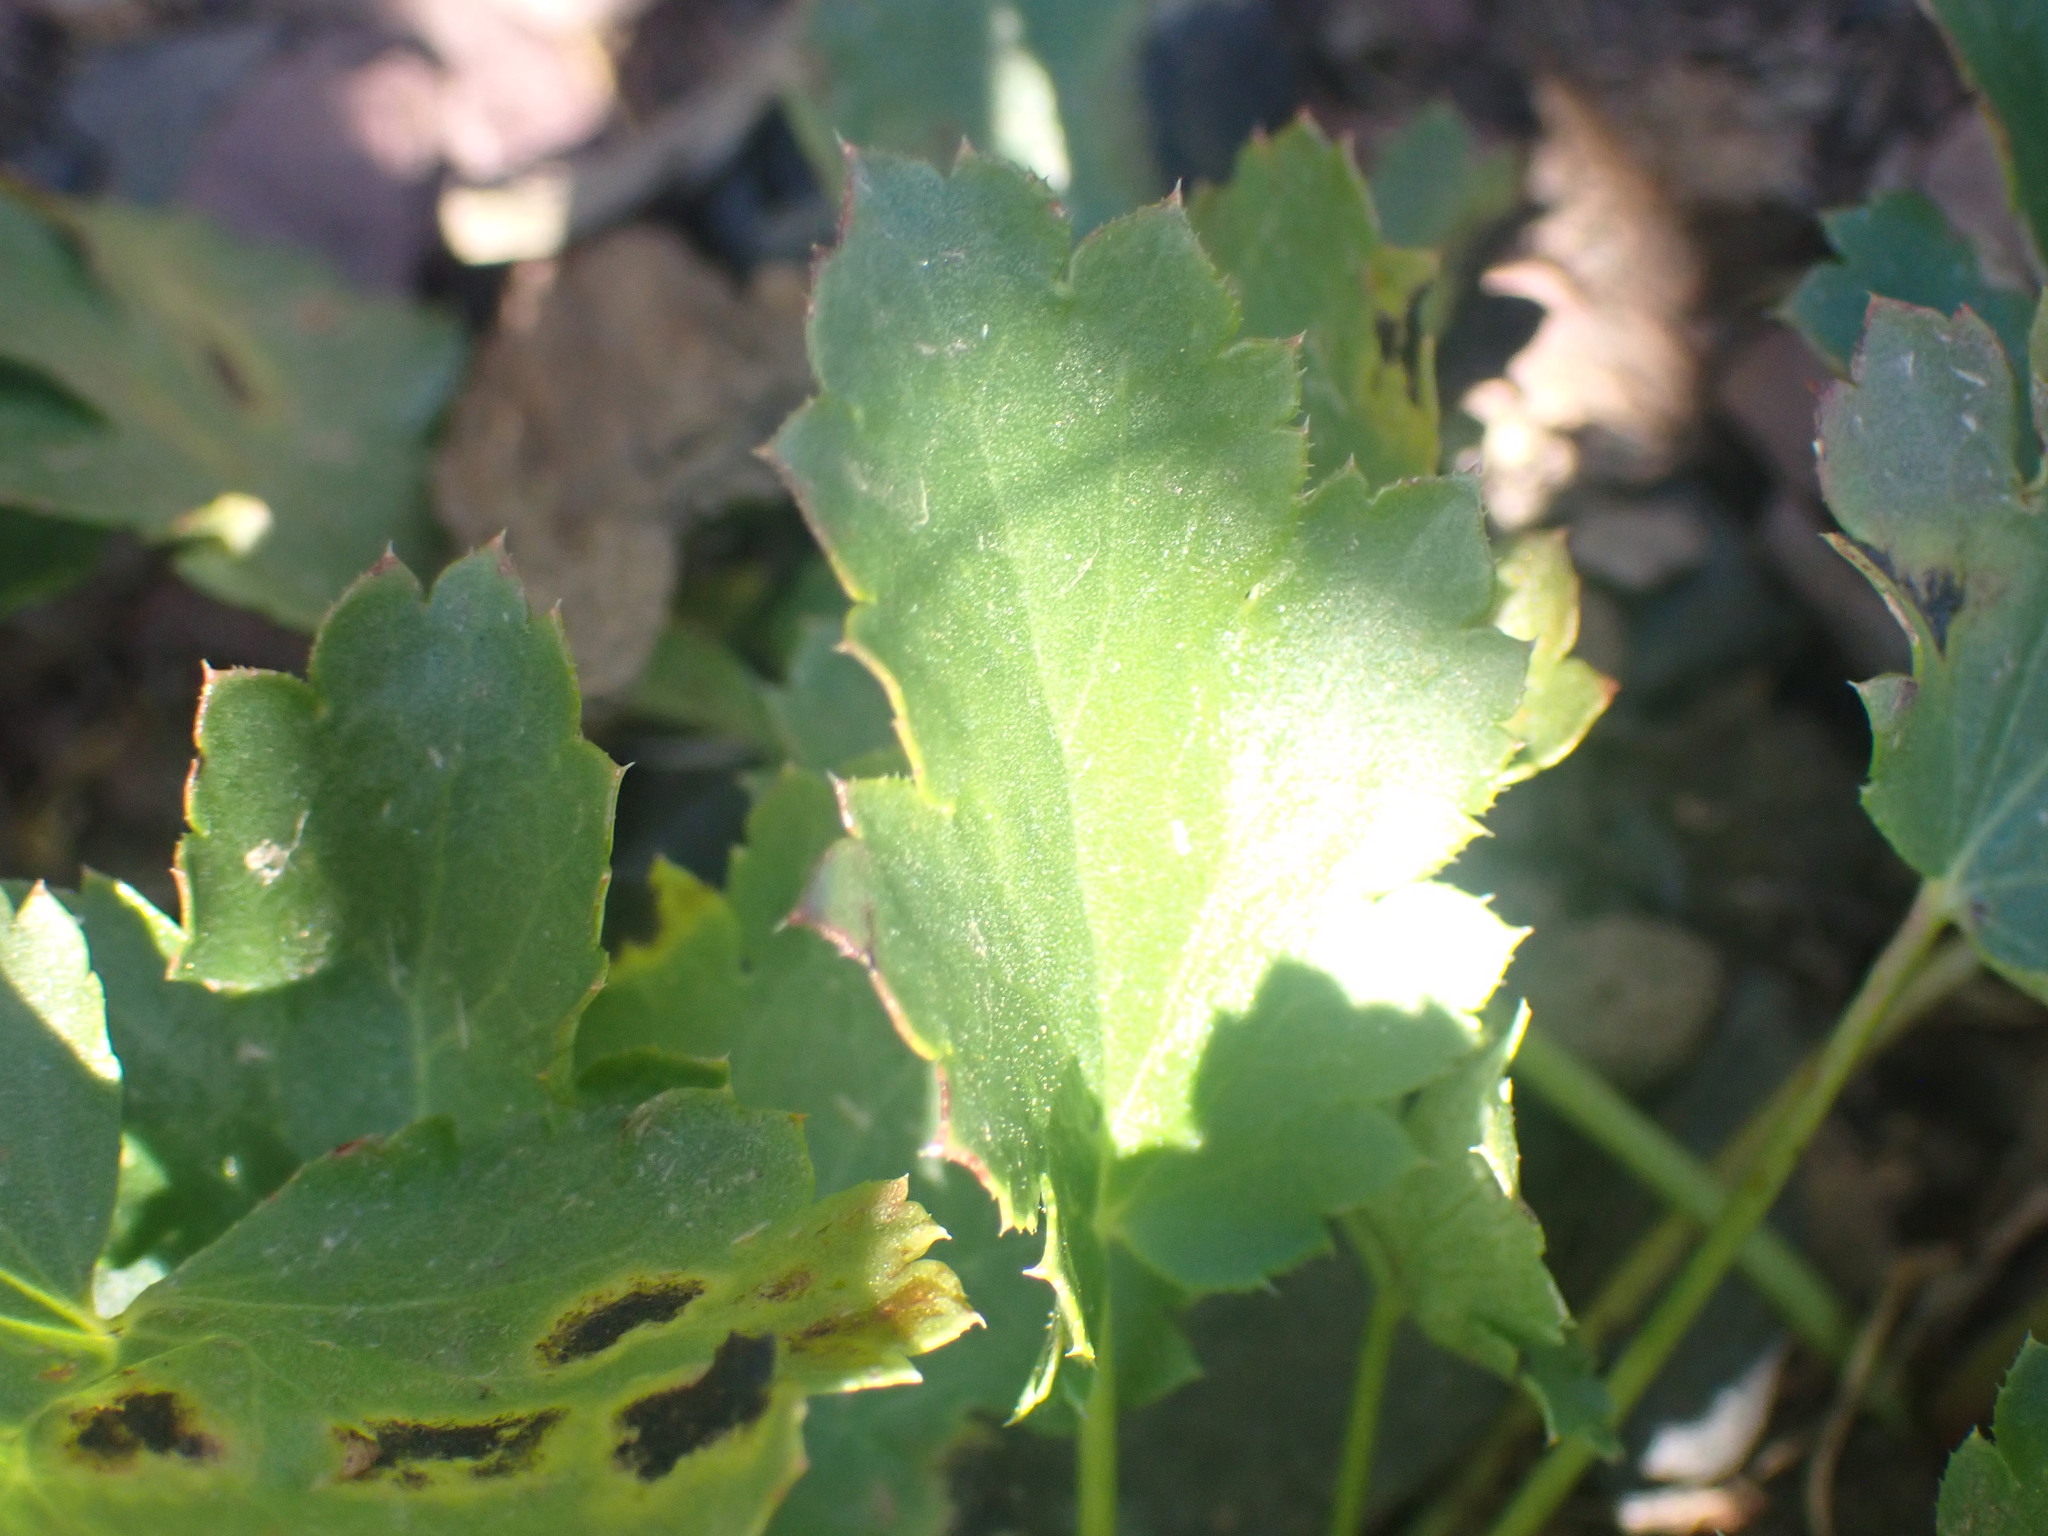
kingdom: Plantae
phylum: Tracheophyta
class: Magnoliopsida
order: Saxifragales
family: Saxifragaceae
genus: Heuchera
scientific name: Heuchera cylindrica
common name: Mat alumroot
